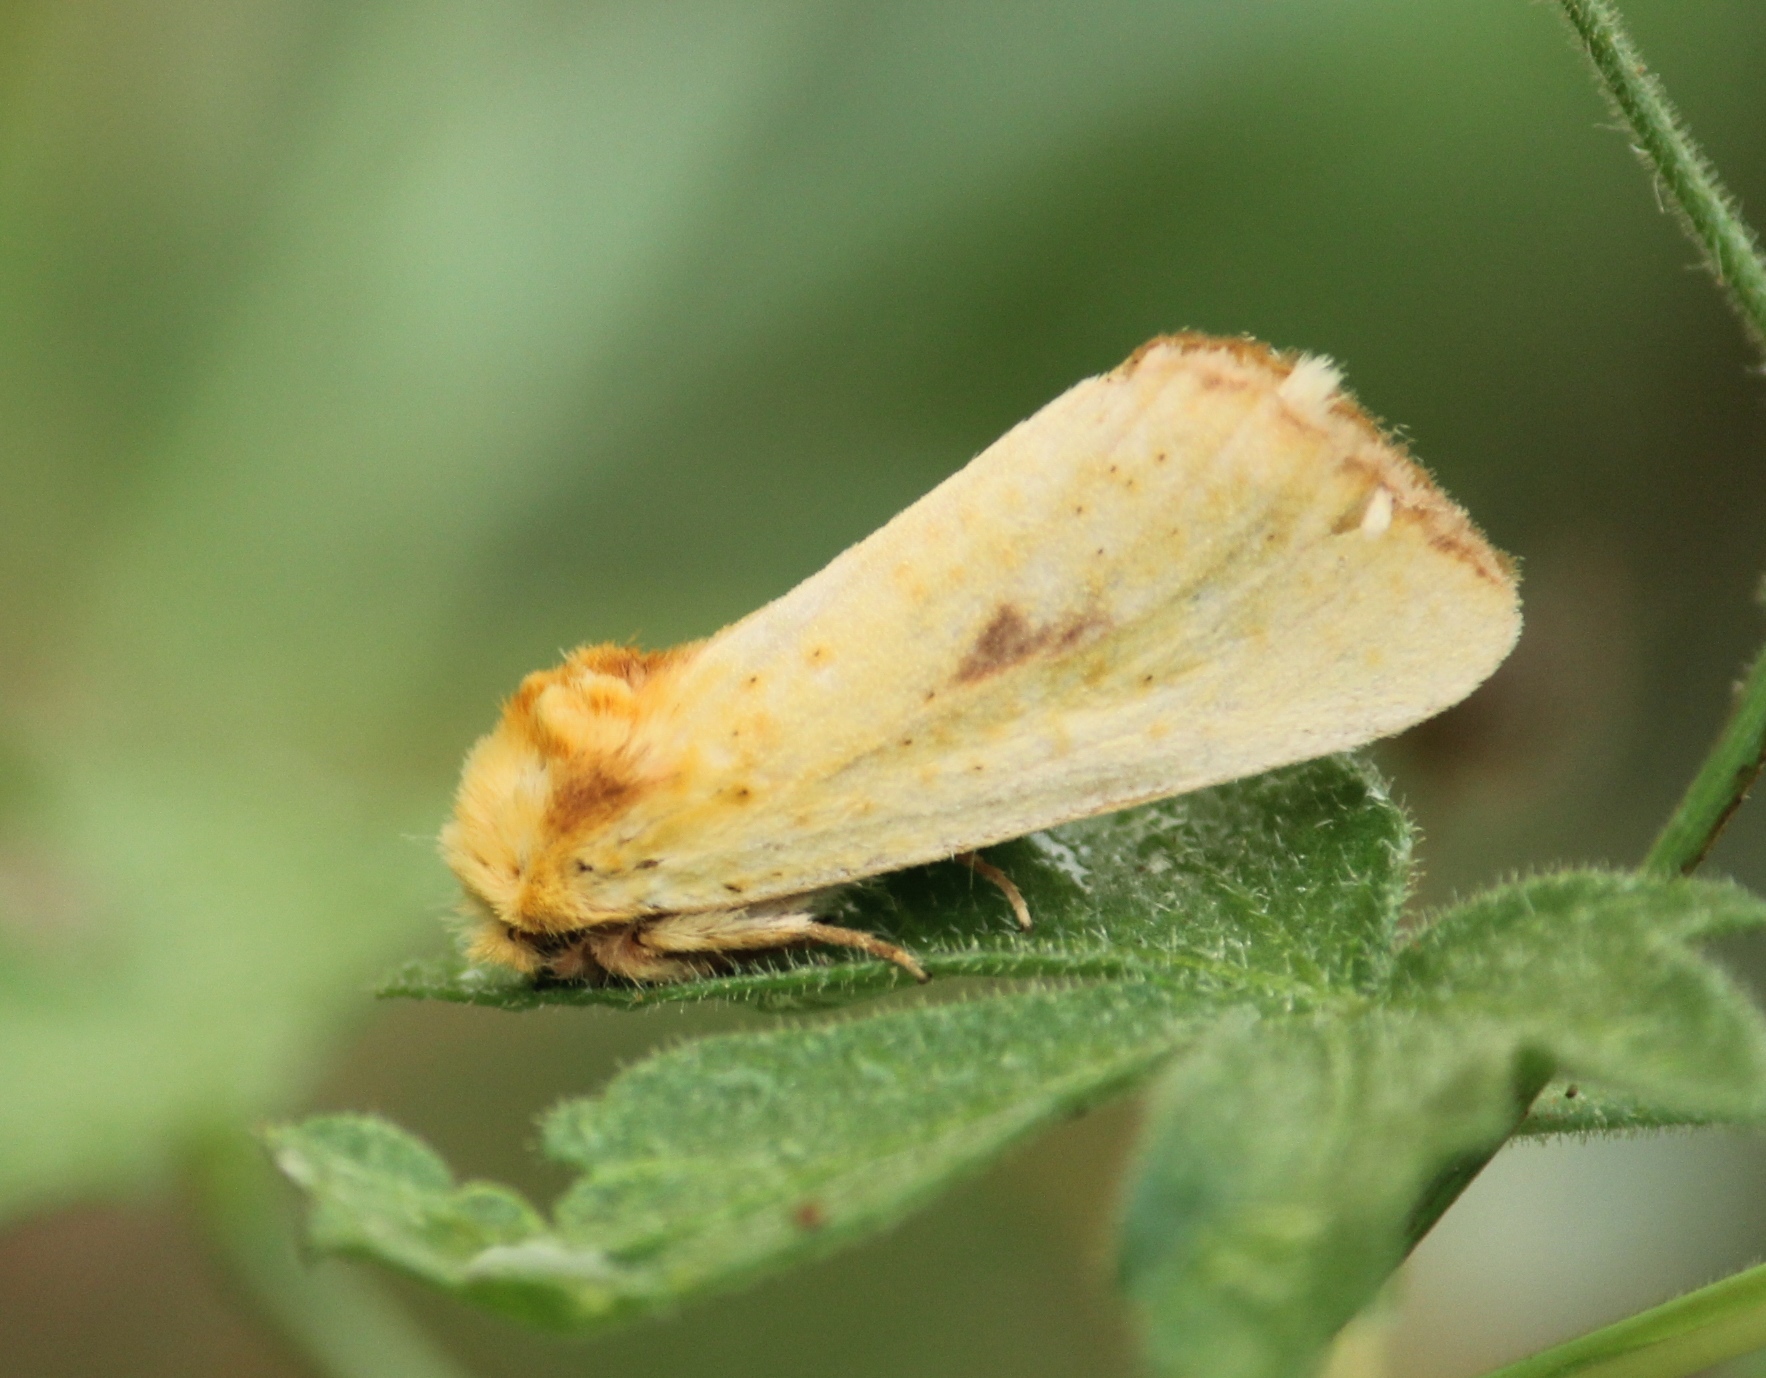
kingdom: Animalia
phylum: Arthropoda
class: Insecta
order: Lepidoptera
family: Notodontidae
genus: Antheua
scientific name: Antheua servula
